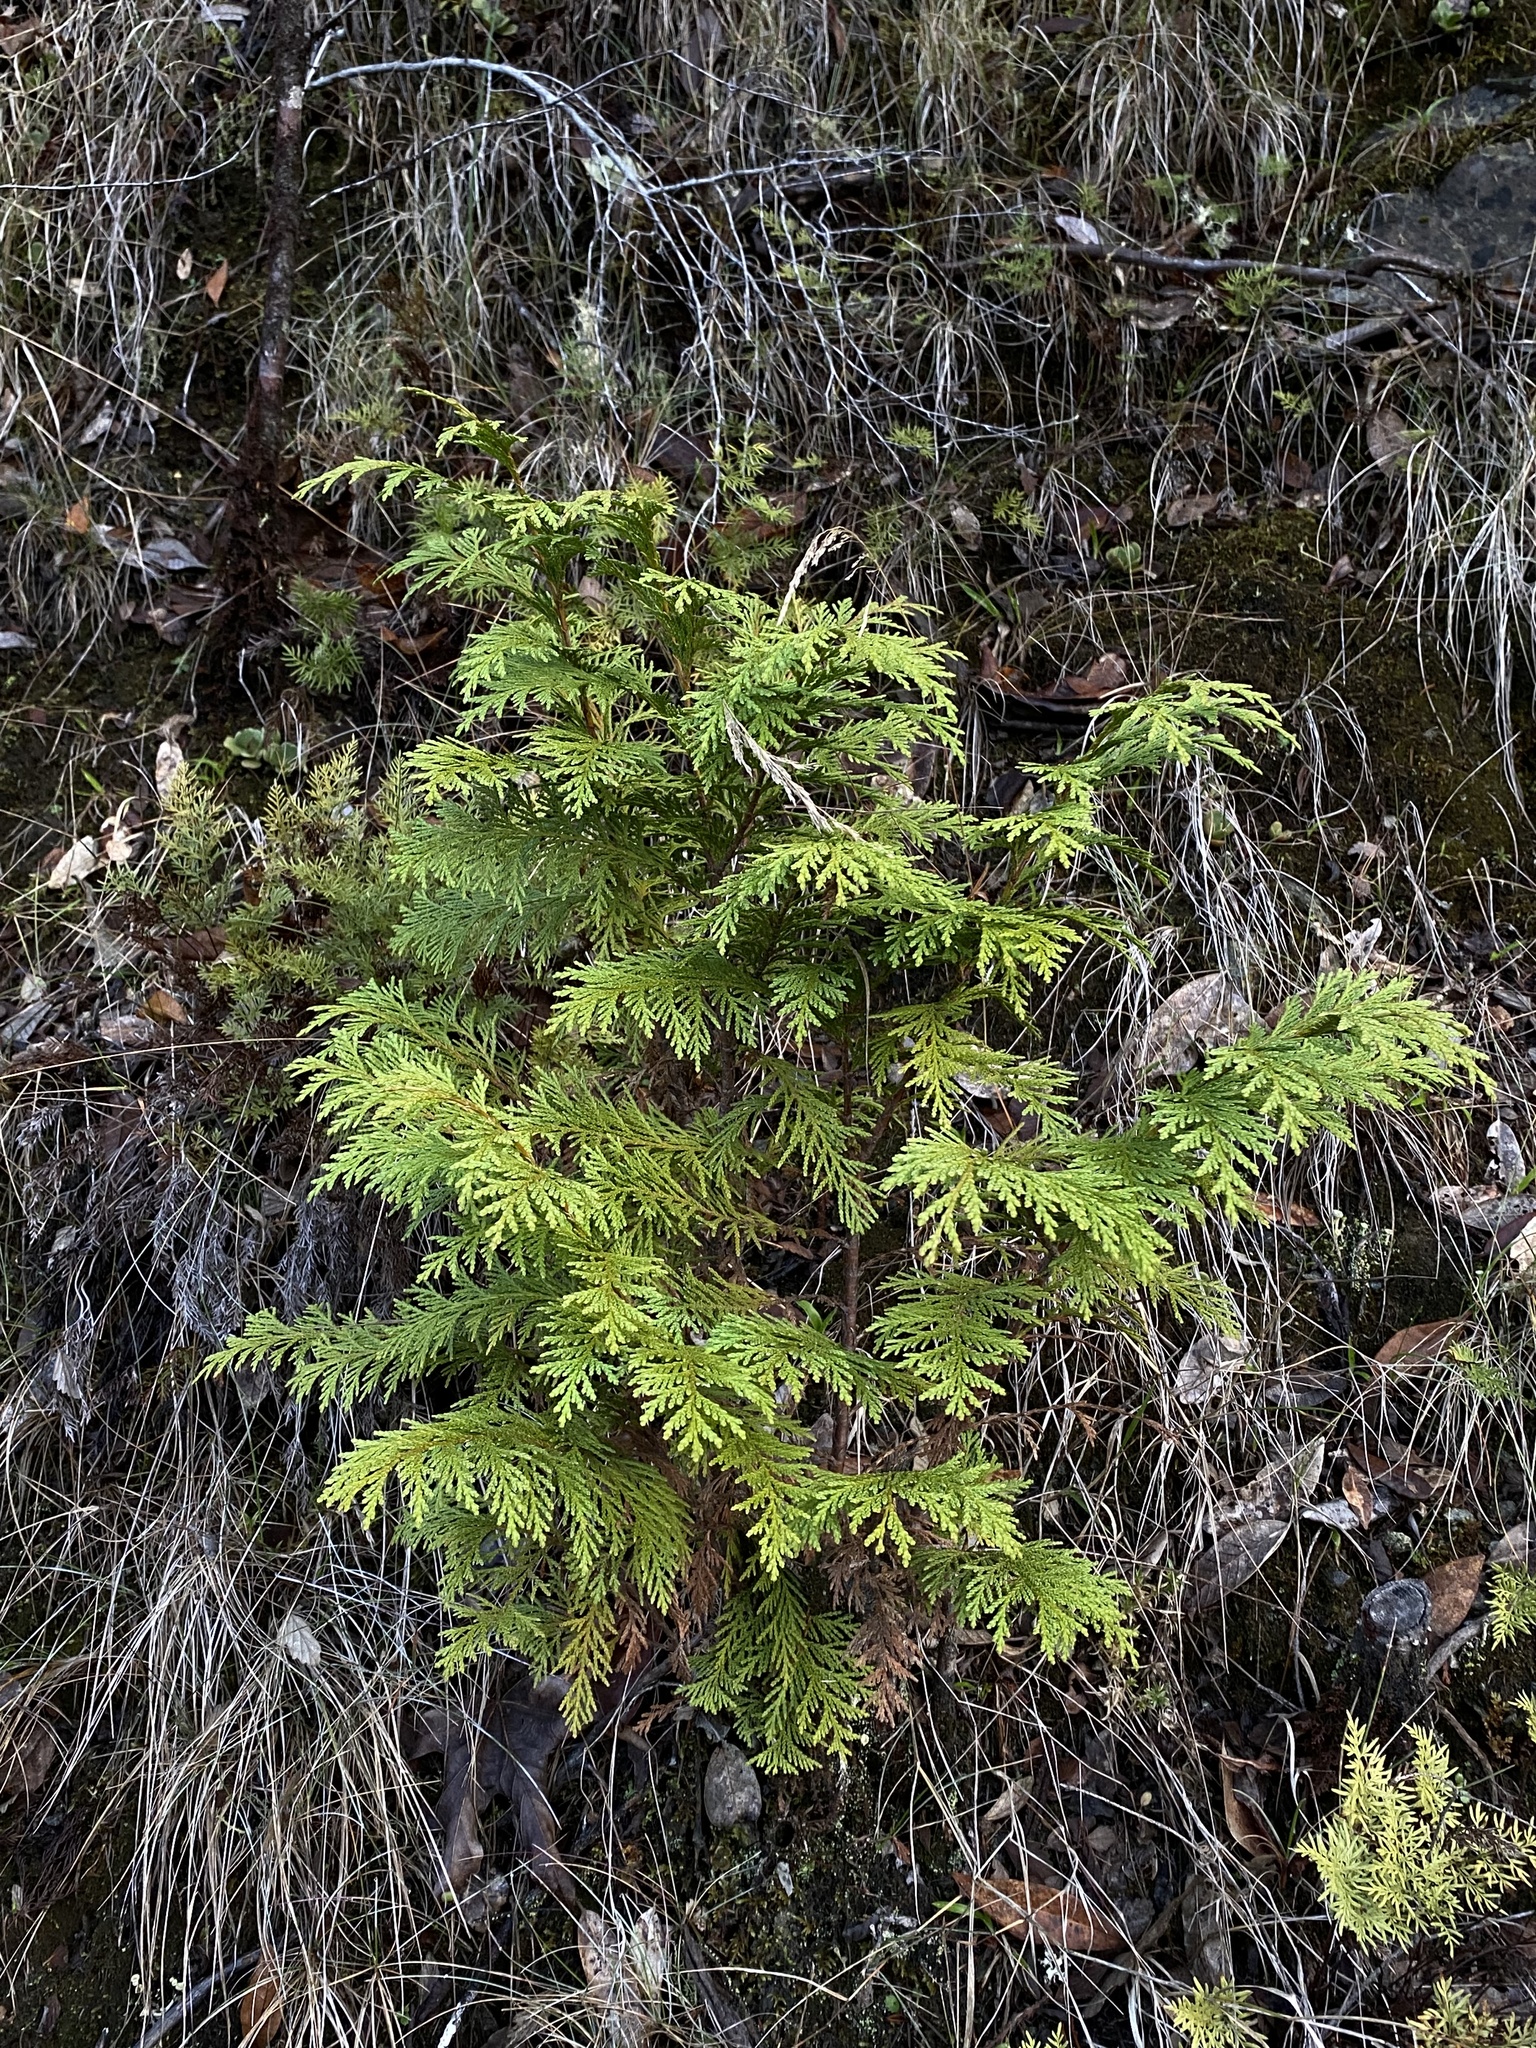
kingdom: Plantae
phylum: Tracheophyta
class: Pinopsida
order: Pinales
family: Cupressaceae
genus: Chamaecyparis
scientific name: Chamaecyparis lawsoniana
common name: Lawson's cypress
